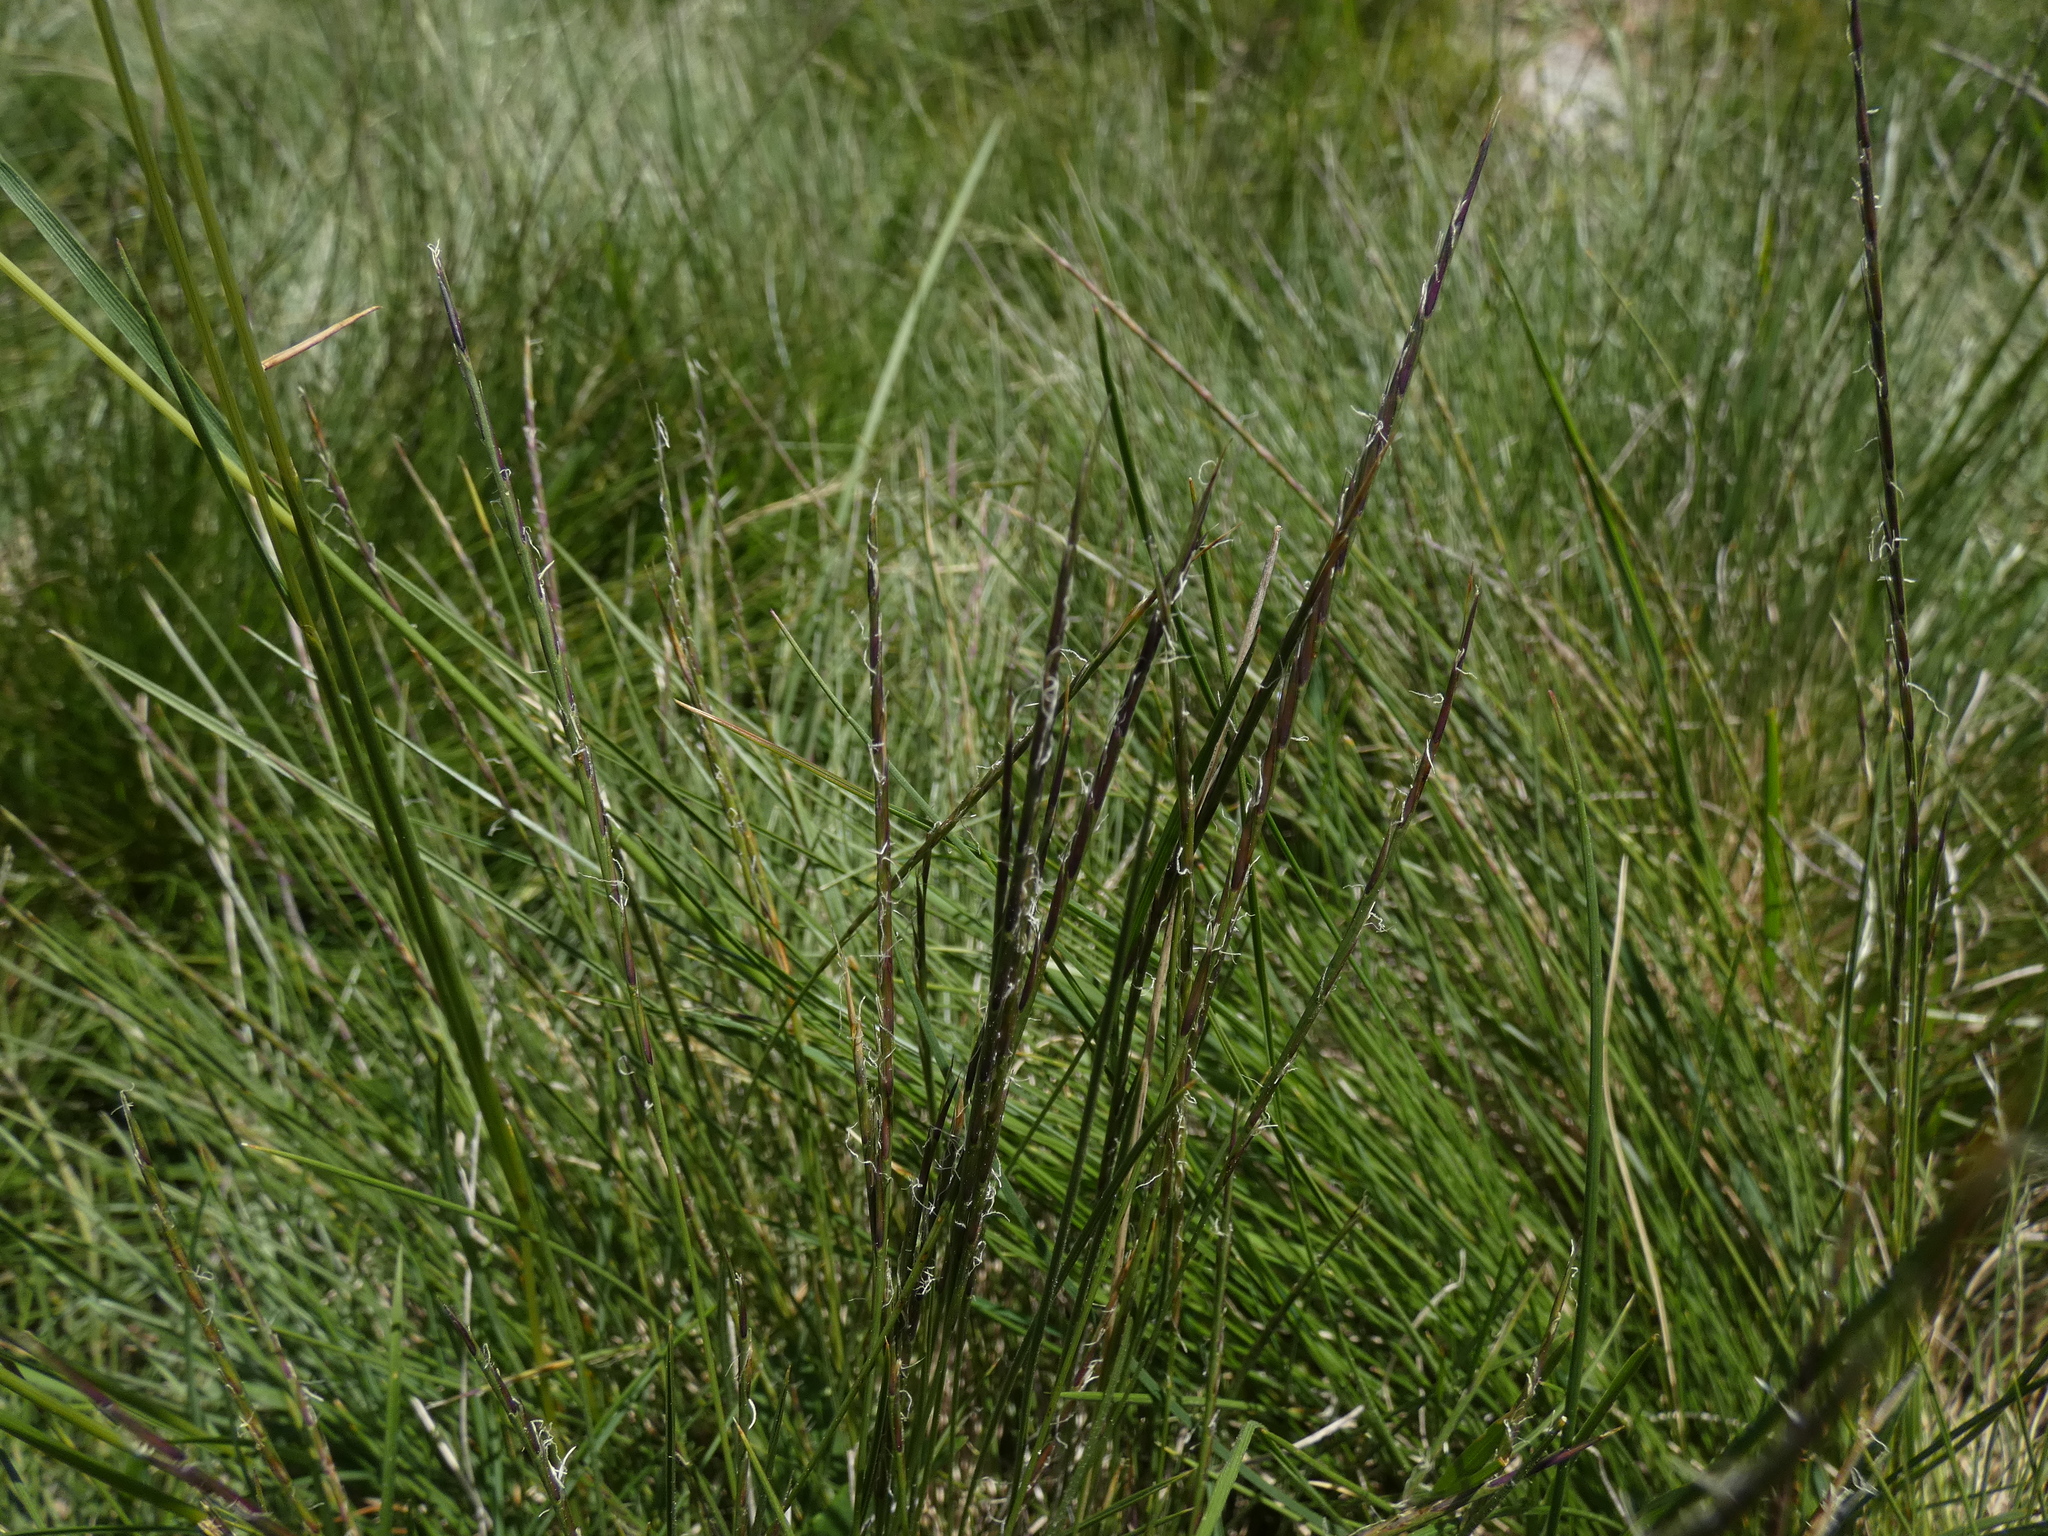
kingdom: Plantae
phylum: Tracheophyta
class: Liliopsida
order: Poales
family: Poaceae
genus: Nardus
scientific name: Nardus stricta
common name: Mat-grass
